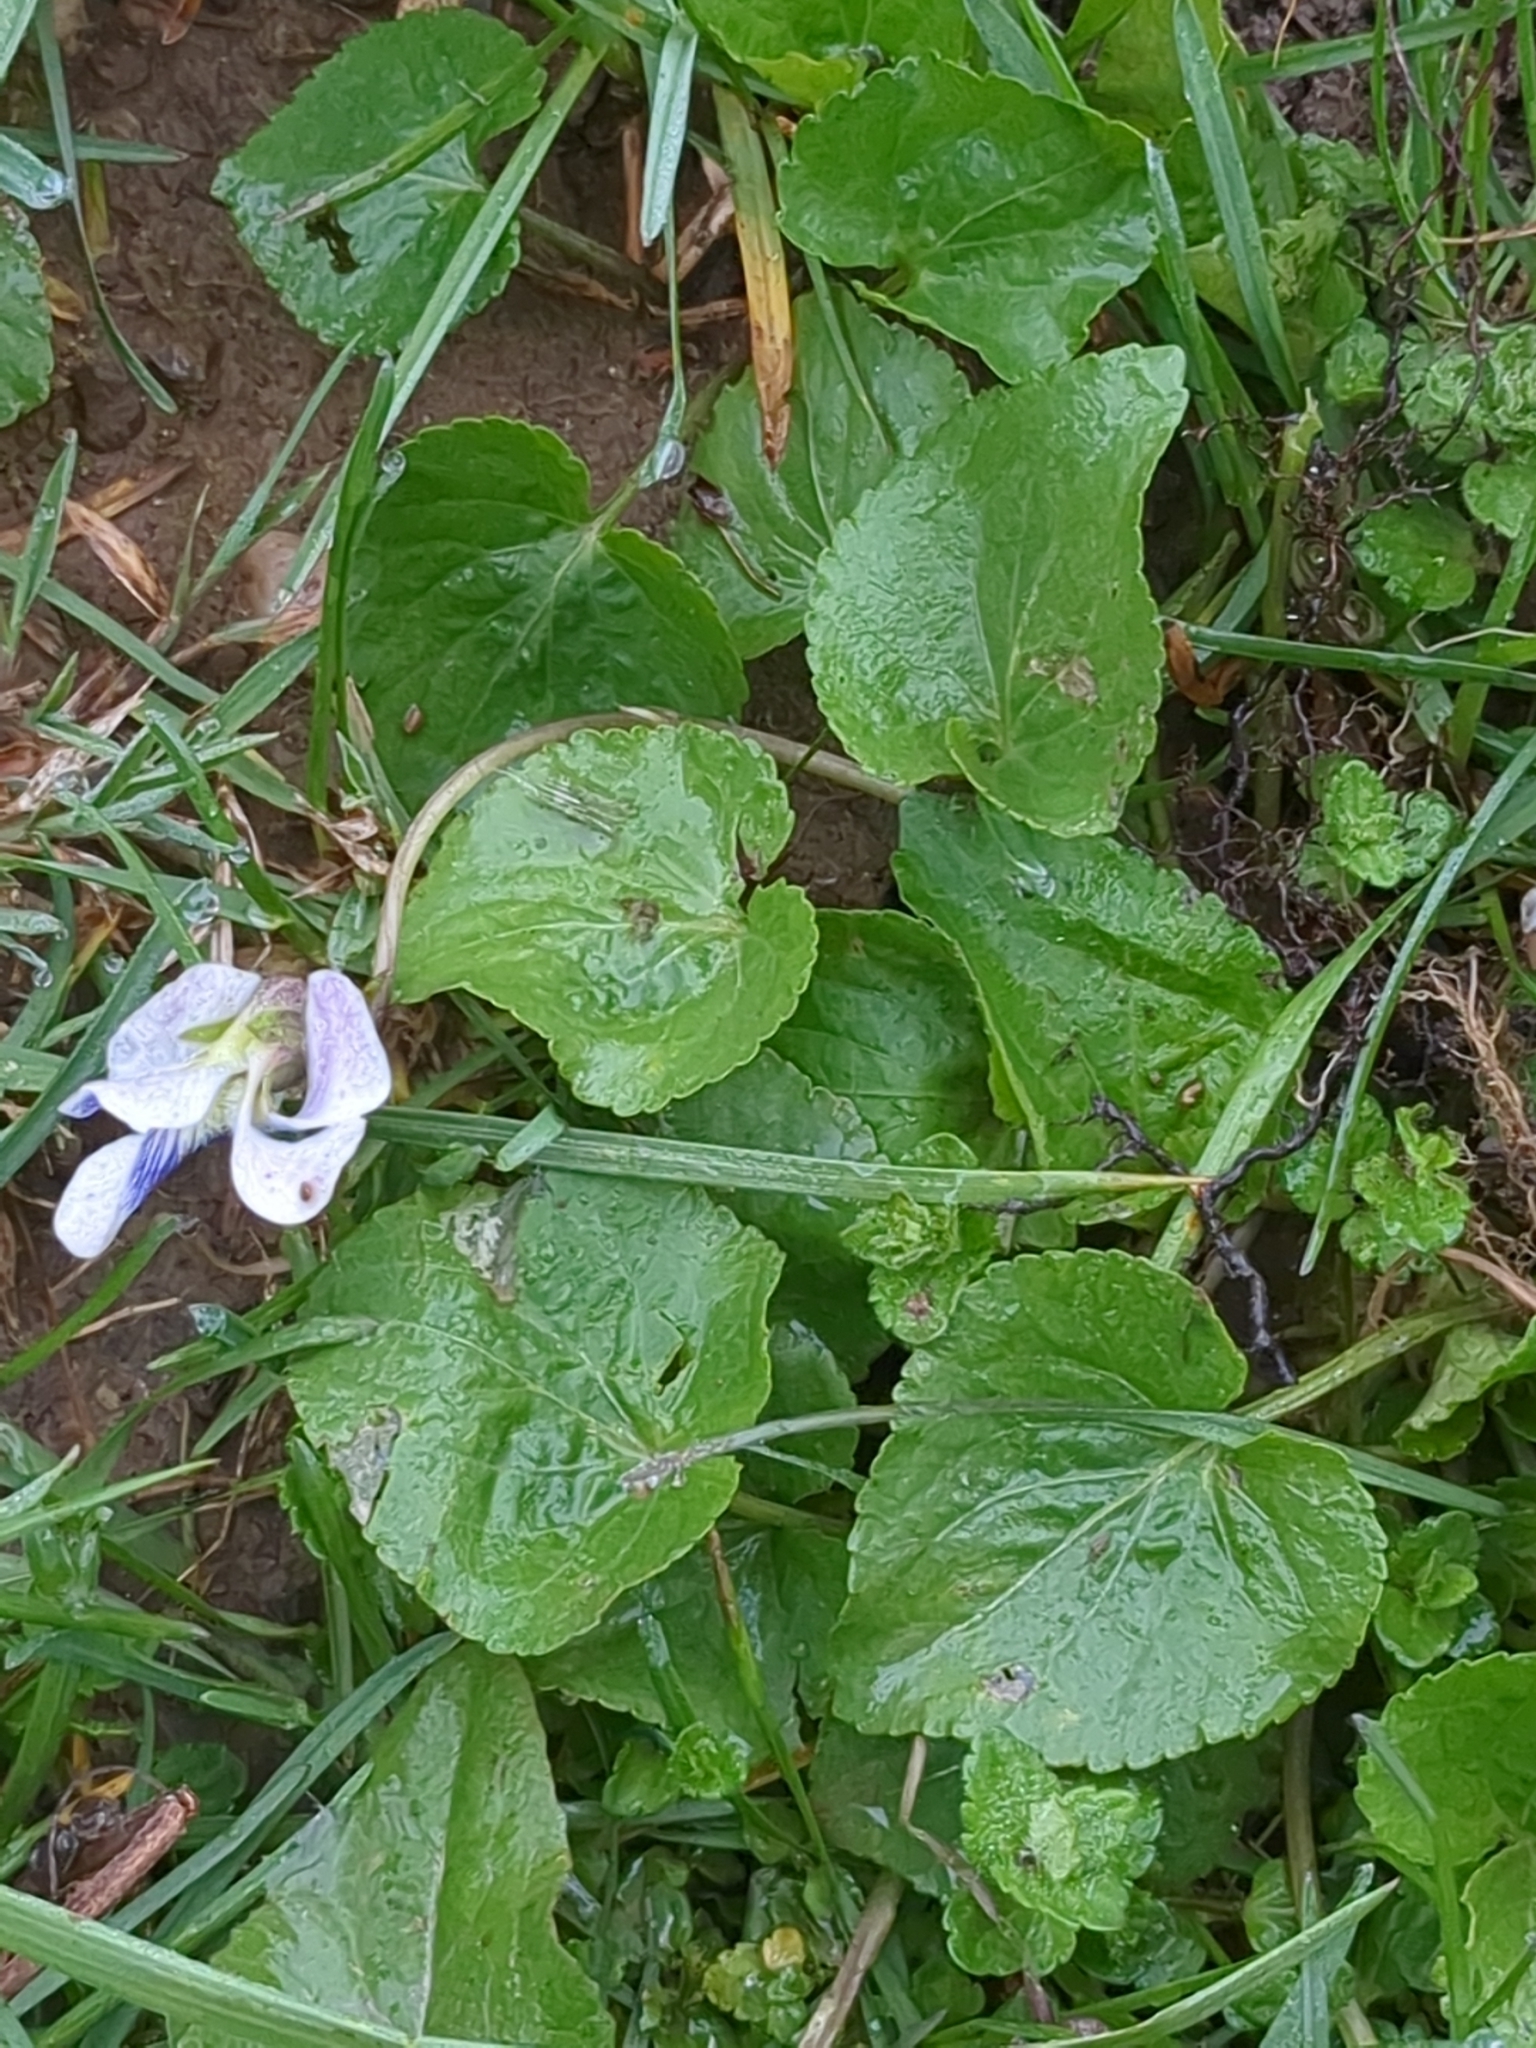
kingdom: Plantae
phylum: Tracheophyta
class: Magnoliopsida
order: Malpighiales
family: Violaceae
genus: Viola
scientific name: Viola sororia
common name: Dooryard violet
